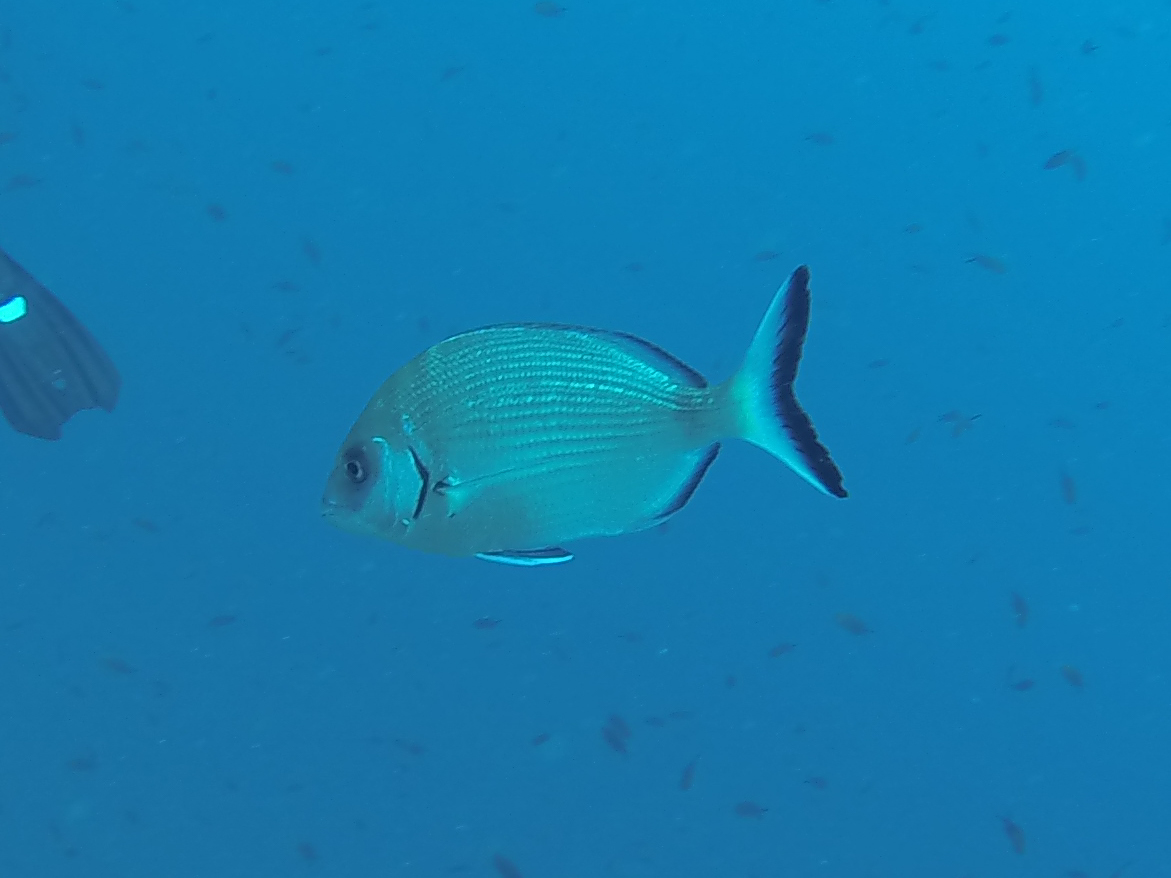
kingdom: Animalia
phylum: Chordata
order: Perciformes
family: Sparidae
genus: Diplodus
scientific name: Diplodus sargus
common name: White seabream
